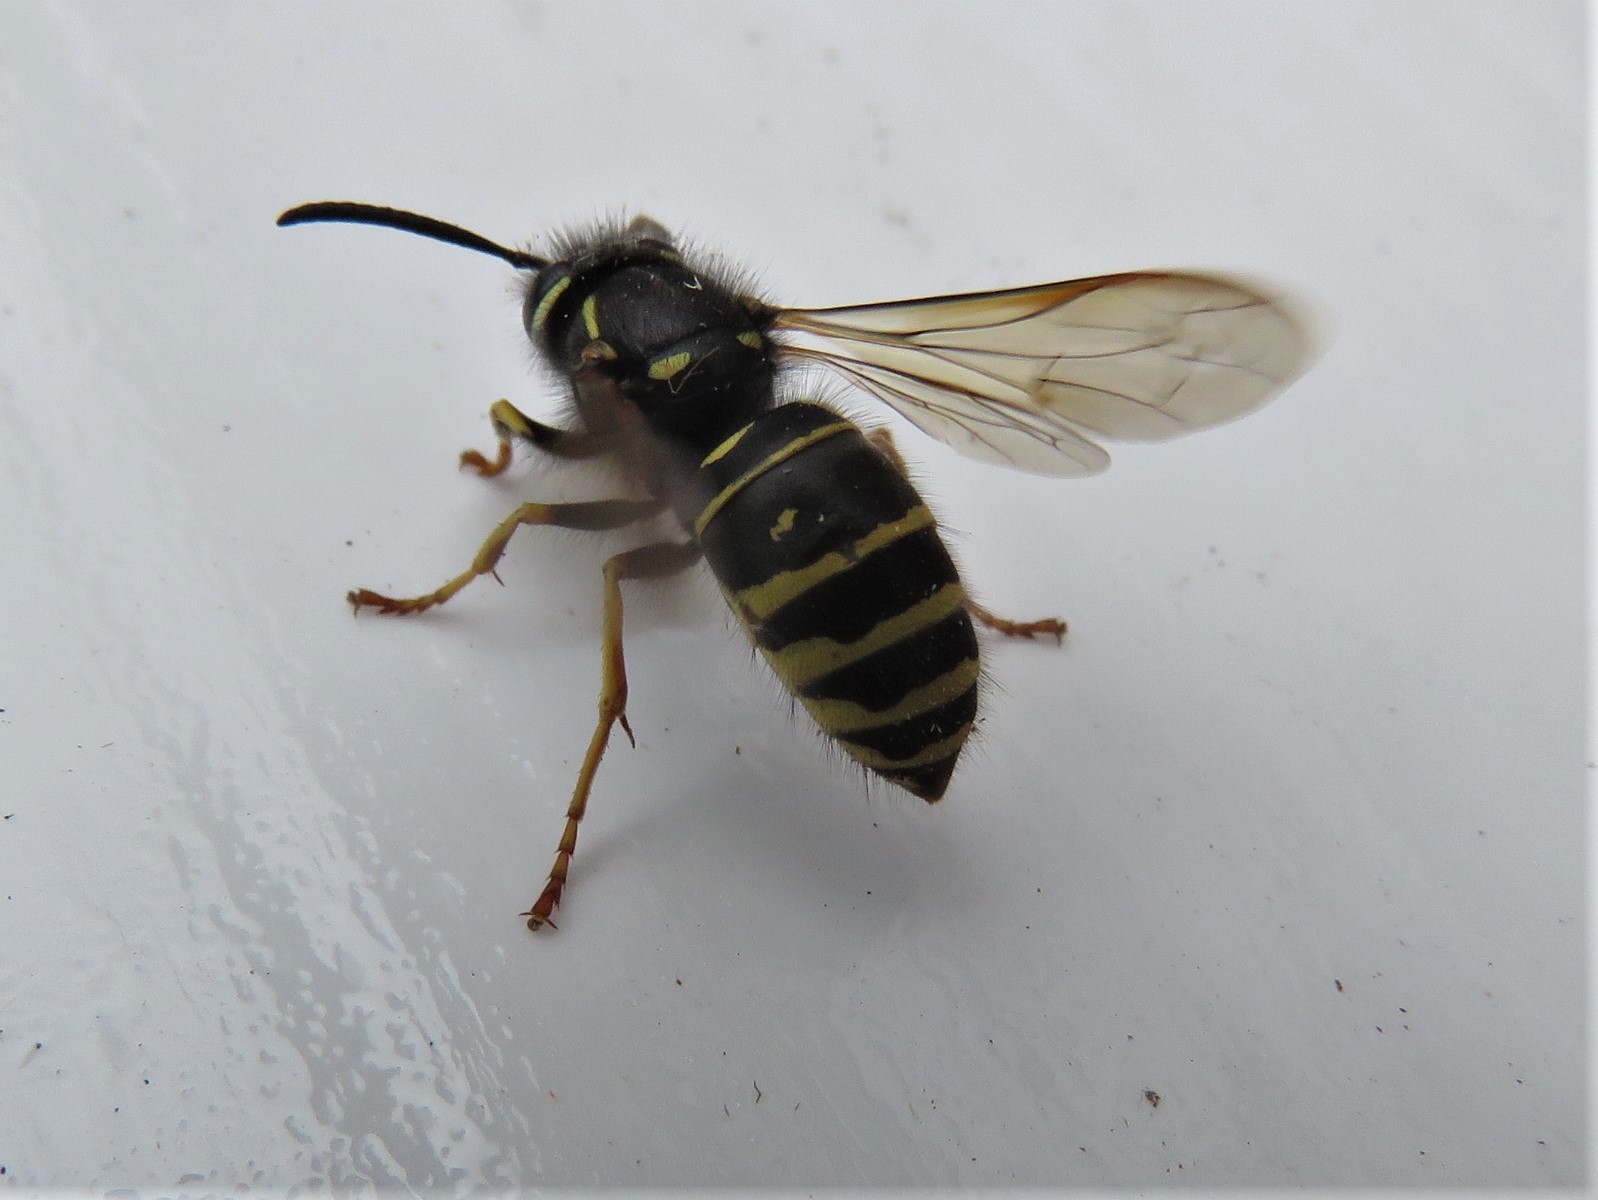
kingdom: Animalia
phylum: Arthropoda
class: Insecta
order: Hymenoptera
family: Vespidae
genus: Vespula
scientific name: Vespula acadica
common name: Forest yellowjacket
